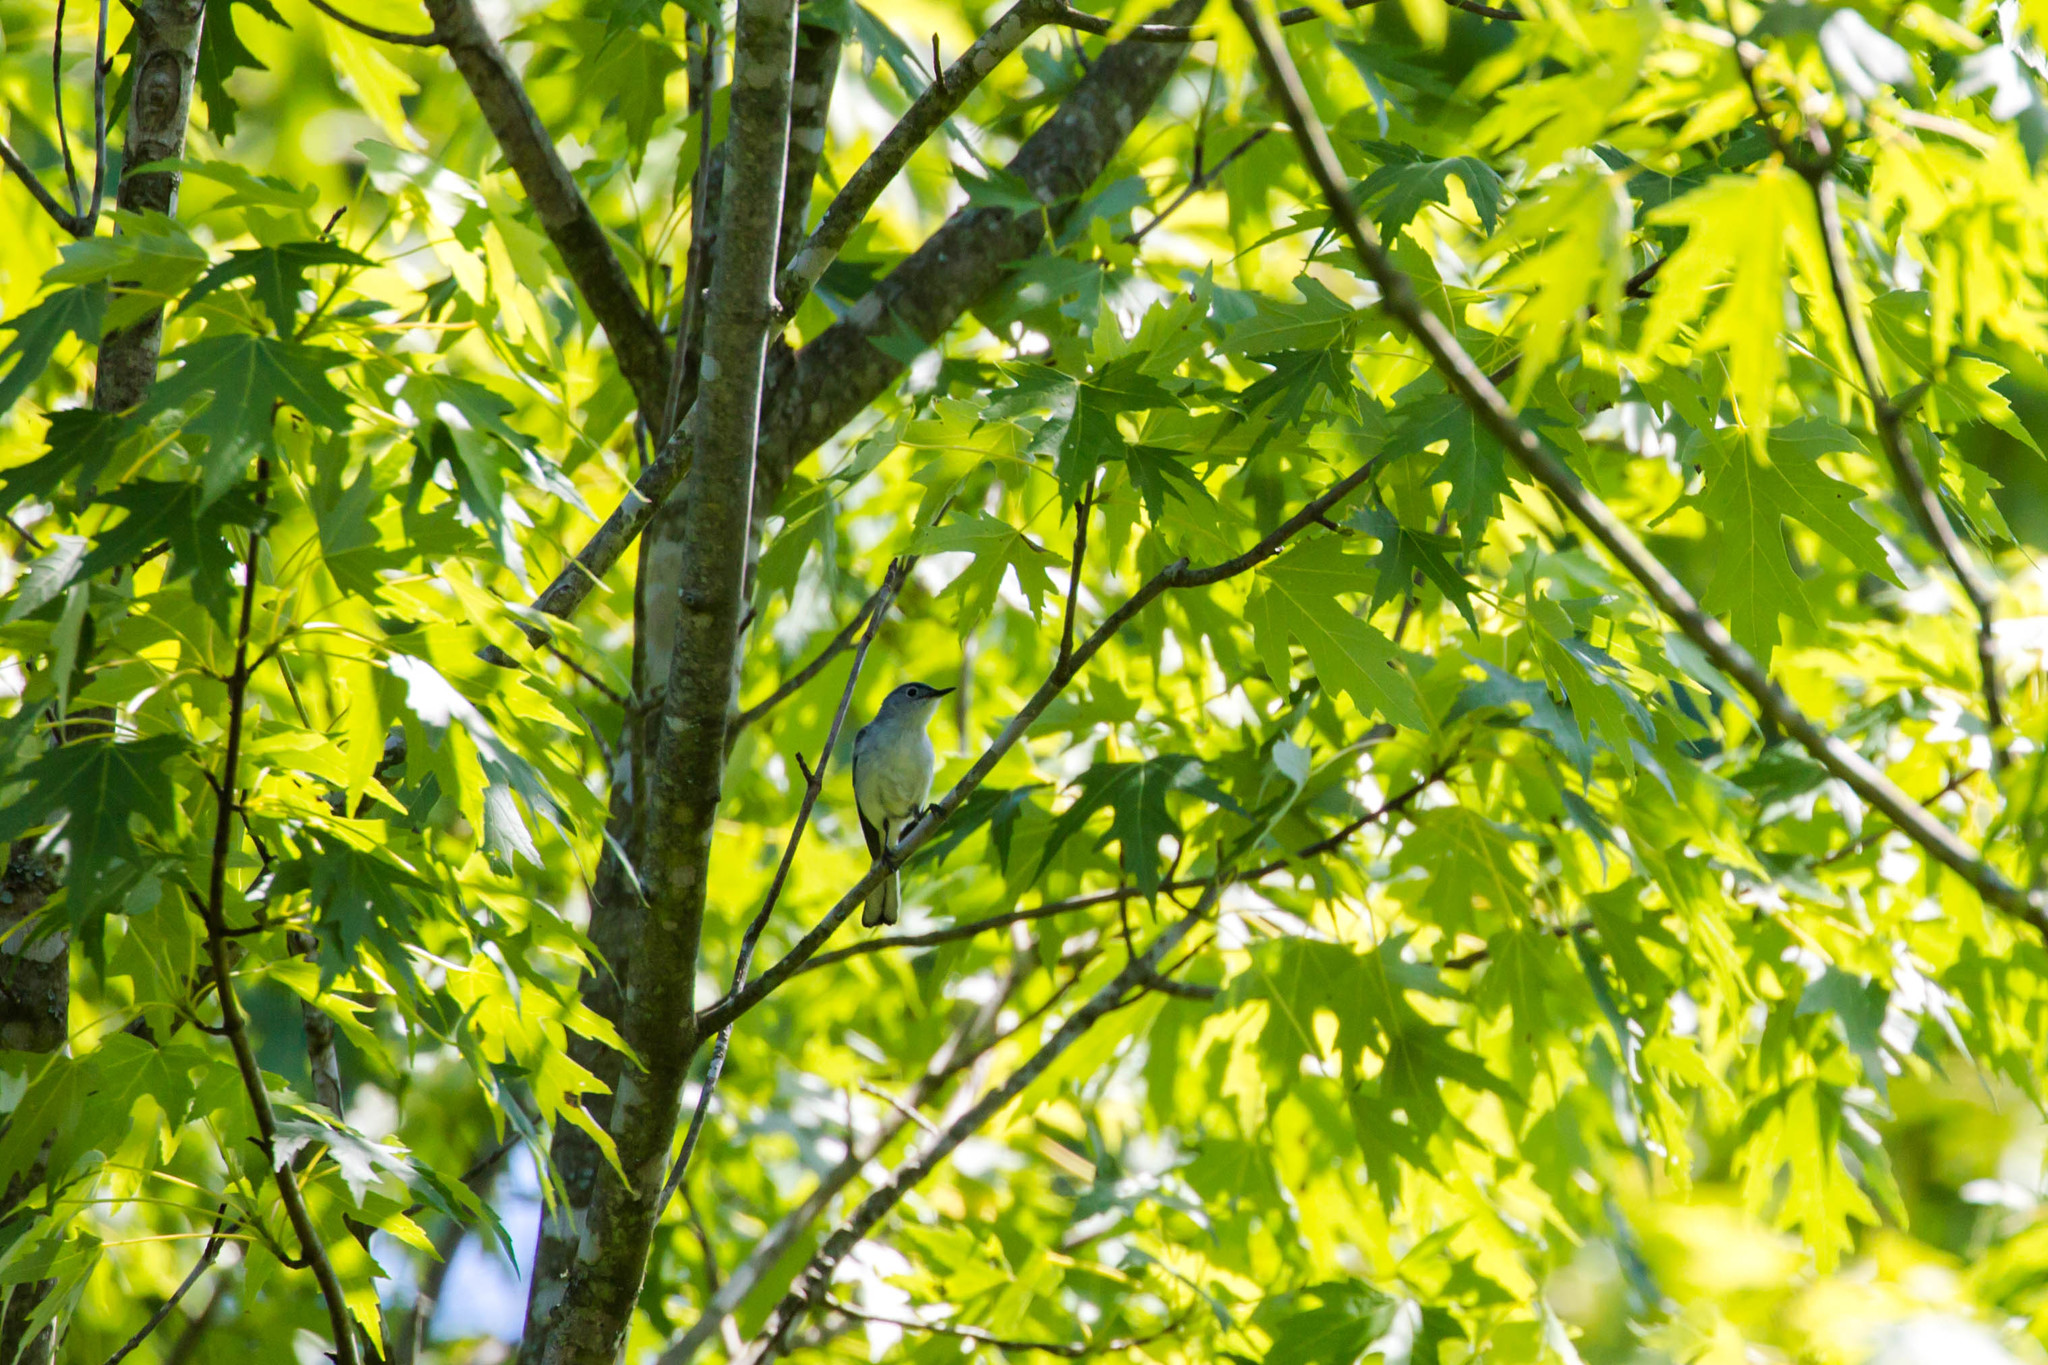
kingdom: Animalia
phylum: Chordata
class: Aves
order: Passeriformes
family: Polioptilidae
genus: Polioptila
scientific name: Polioptila caerulea
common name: Blue-gray gnatcatcher
